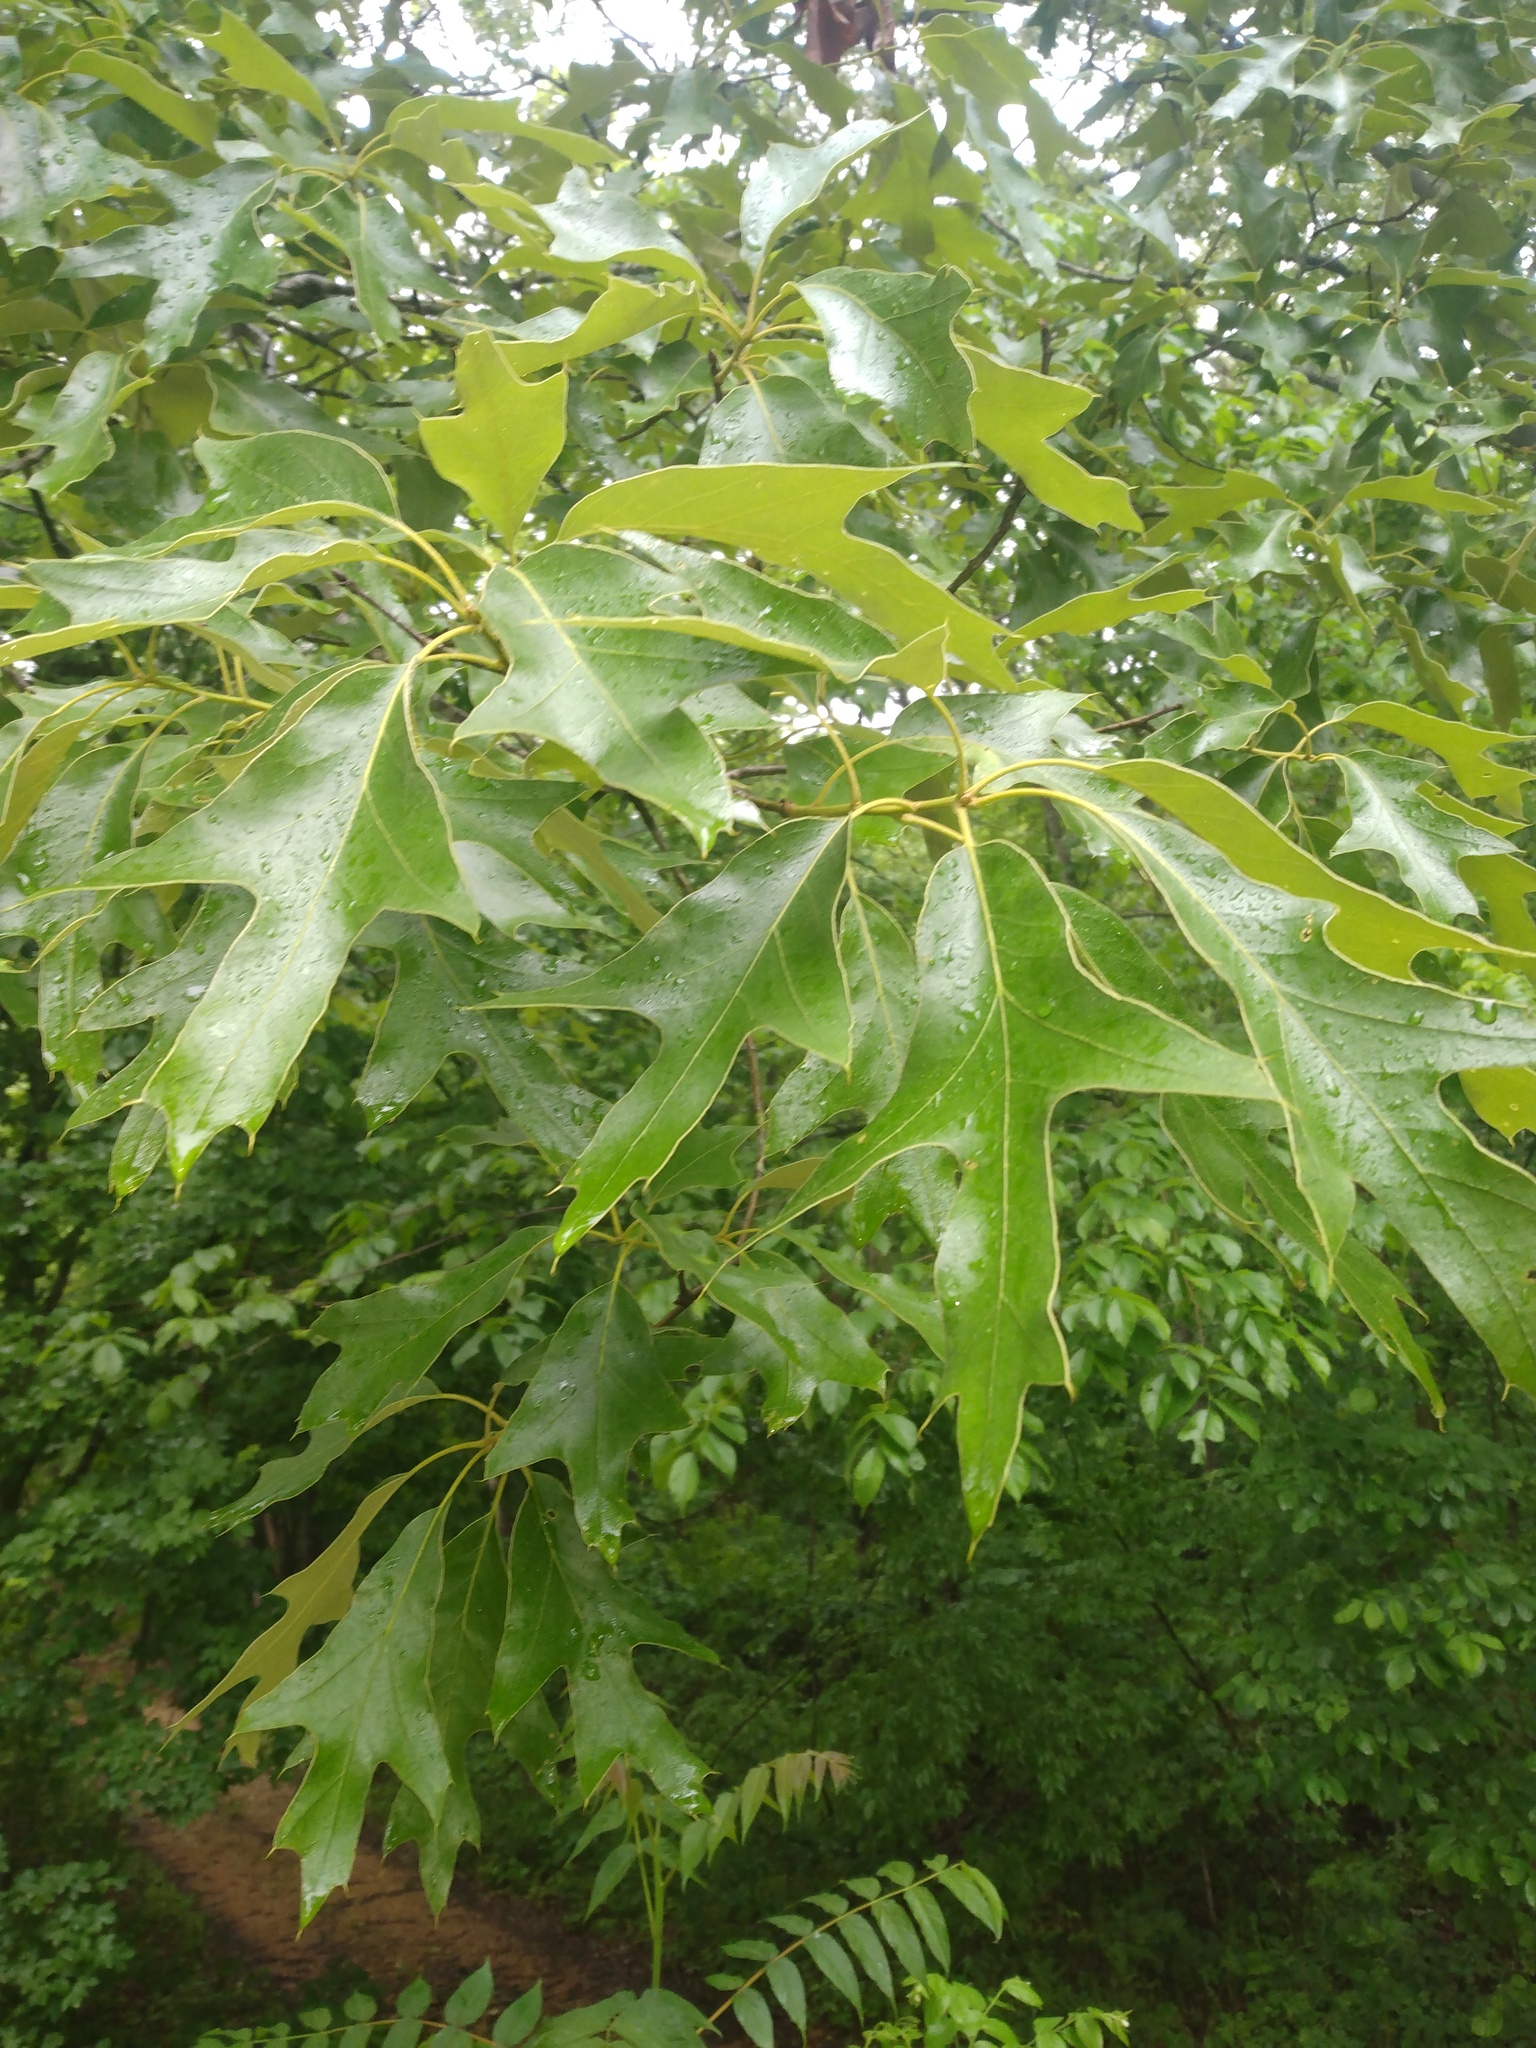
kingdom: Plantae
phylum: Tracheophyta
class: Magnoliopsida
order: Fagales
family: Fagaceae
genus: Quercus
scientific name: Quercus falcata
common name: Southern red oak
